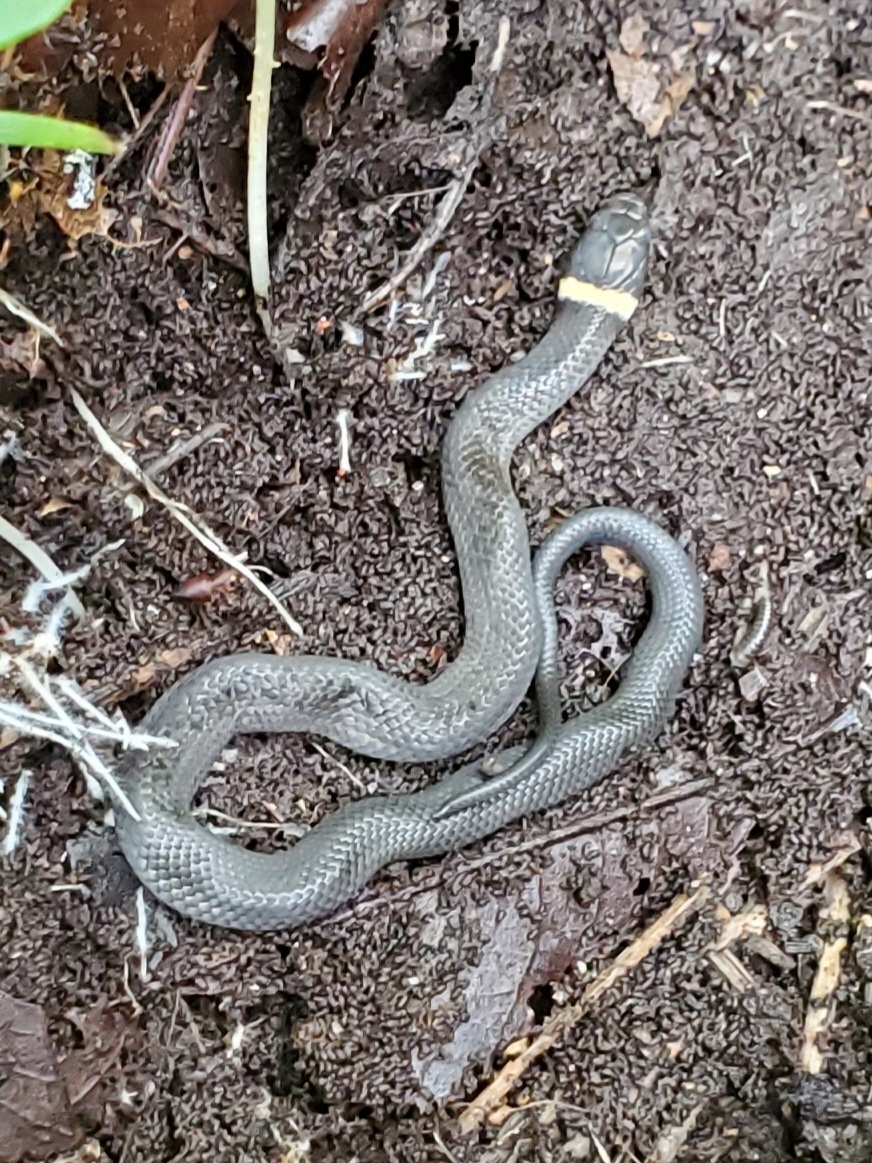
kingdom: Animalia
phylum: Chordata
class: Squamata
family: Colubridae
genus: Diadophis
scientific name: Diadophis punctatus
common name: Ringneck snake
